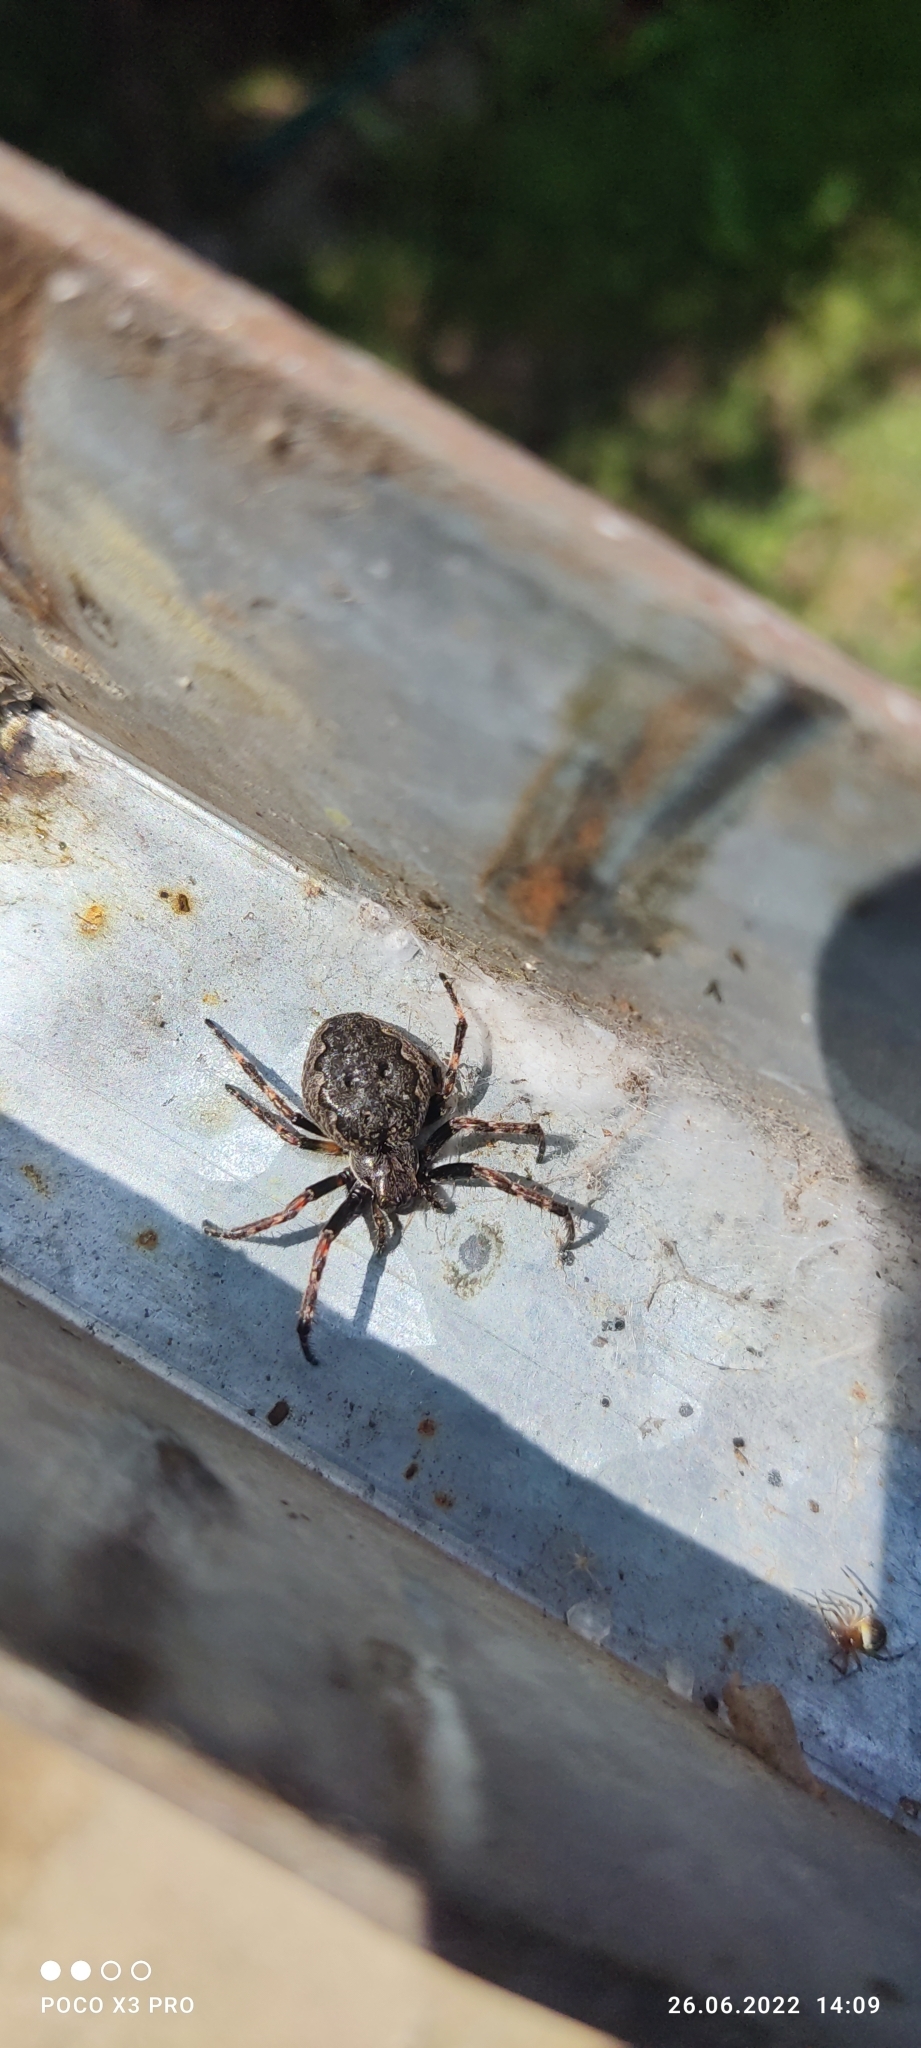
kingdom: Animalia
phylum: Arthropoda
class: Arachnida
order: Araneae
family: Araneidae
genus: Nuctenea
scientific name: Nuctenea umbratica
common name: Toad spider
